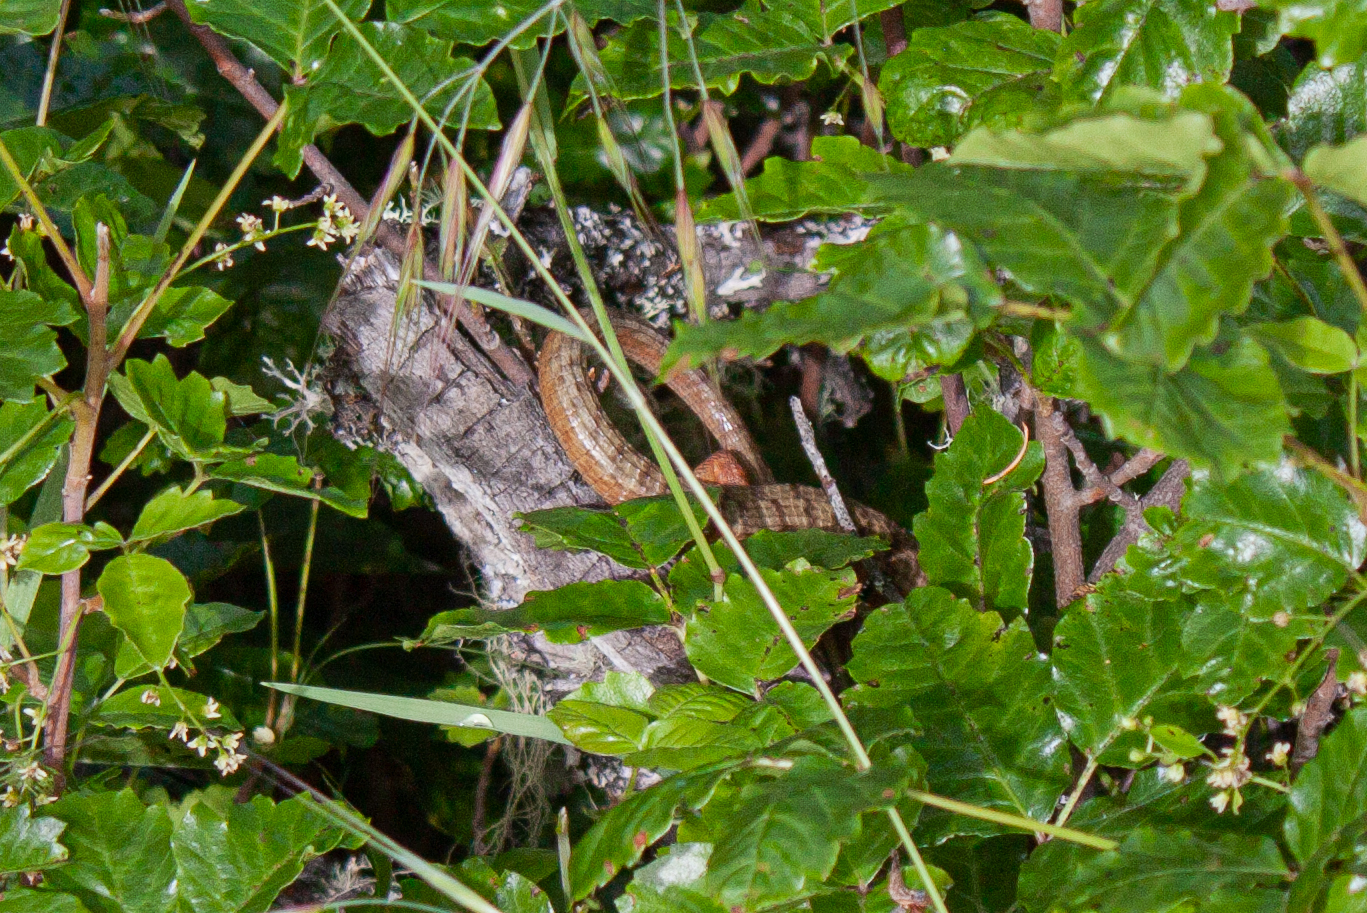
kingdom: Animalia
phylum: Chordata
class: Squamata
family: Anguidae
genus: Elgaria
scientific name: Elgaria coerulea
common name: Northern alligator lizard
